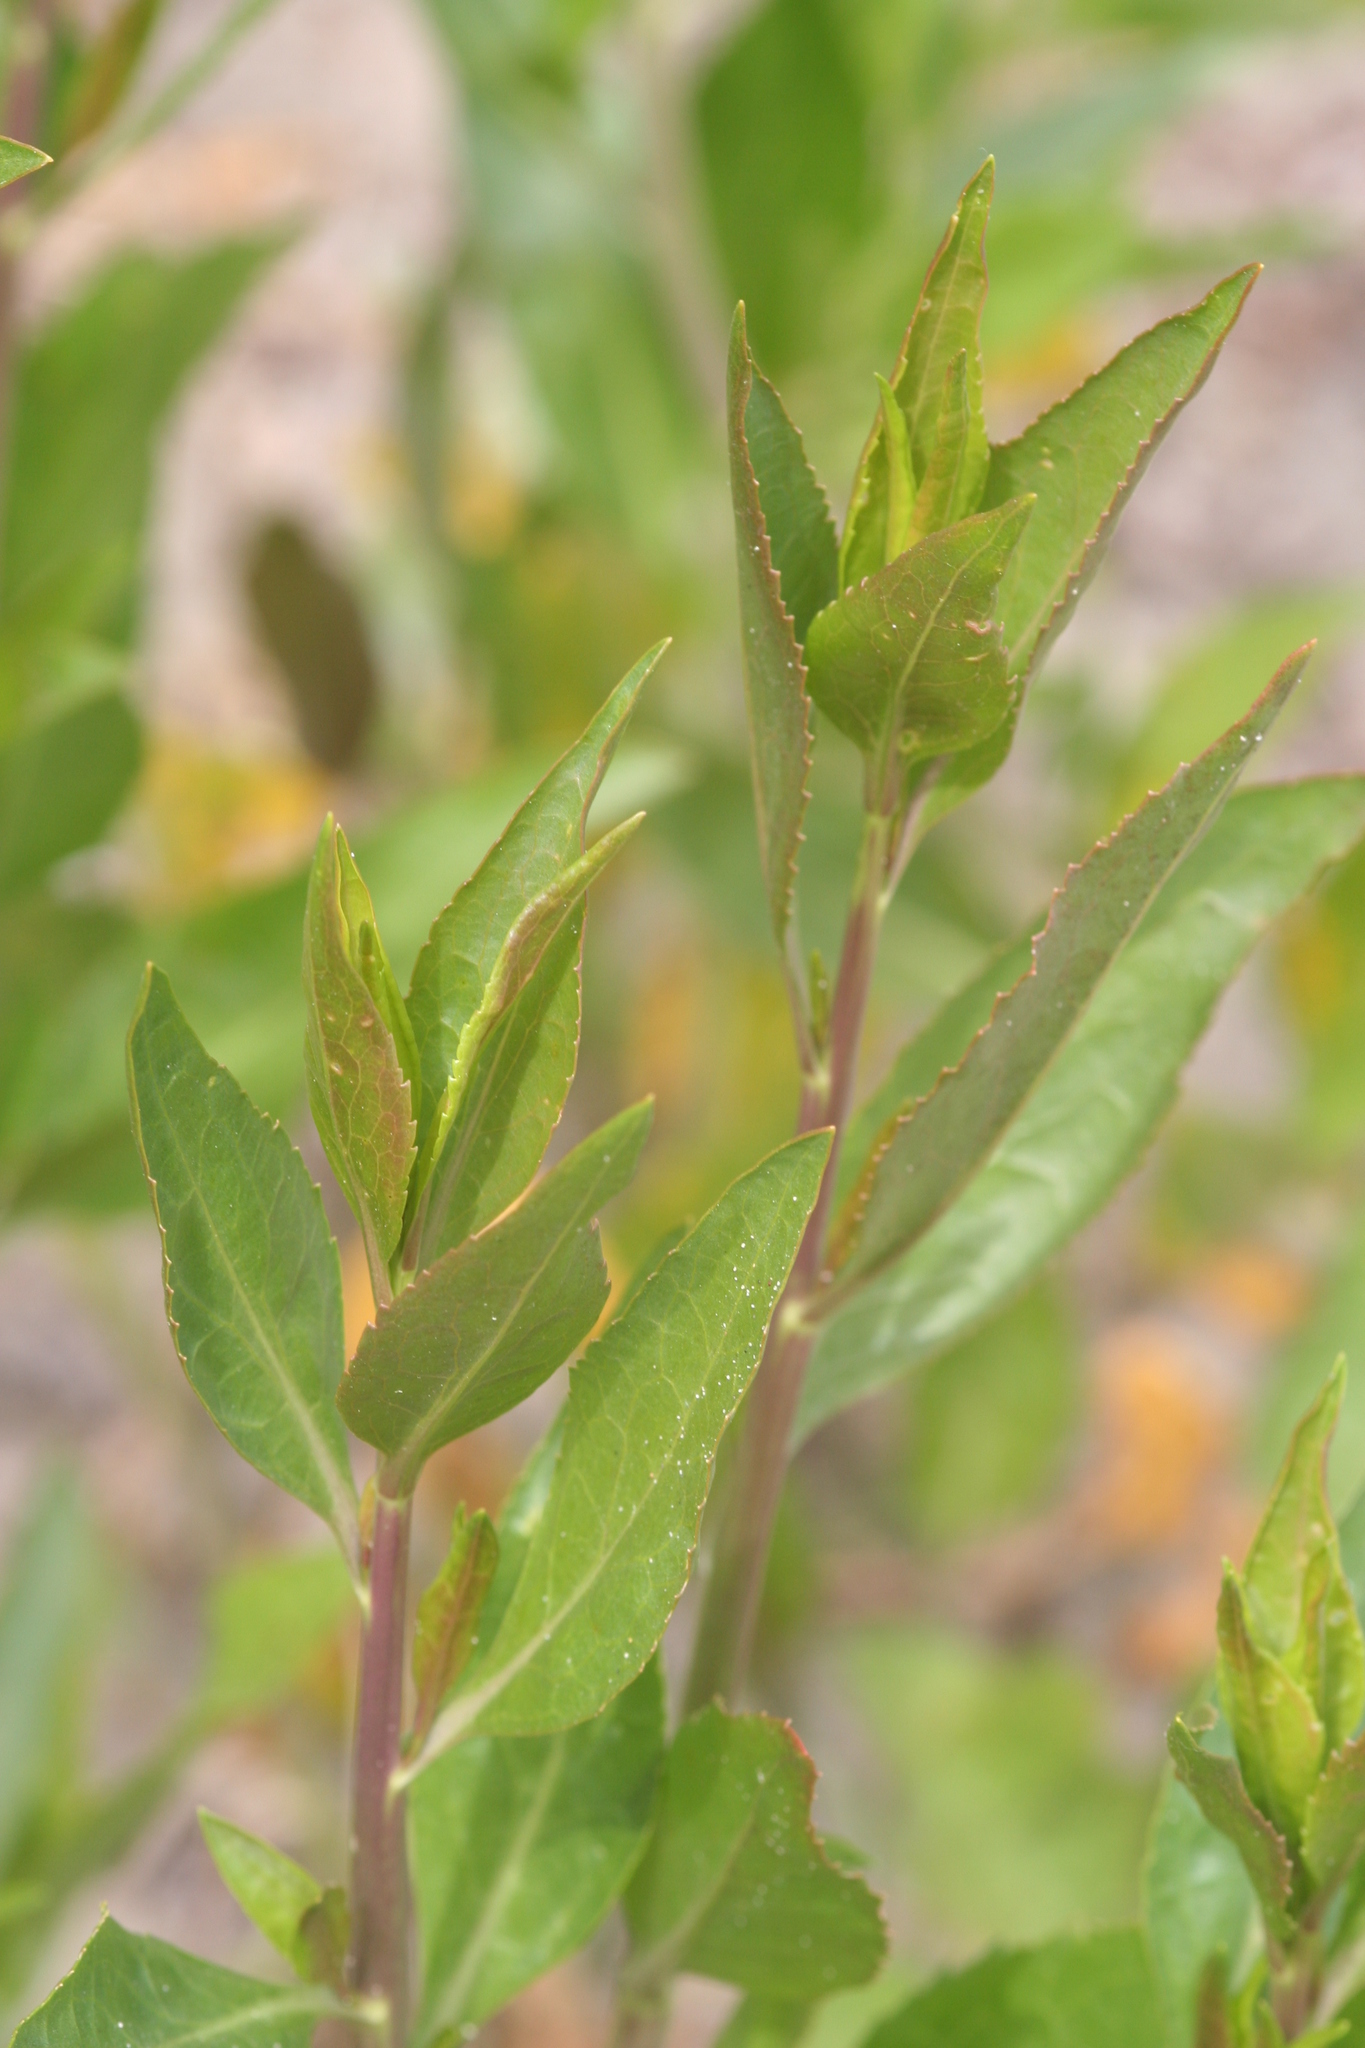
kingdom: Plantae
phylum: Tracheophyta
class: Magnoliopsida
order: Brassicales
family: Brassicaceae
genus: Lepidium
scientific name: Lepidium latifolium
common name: Dittander
